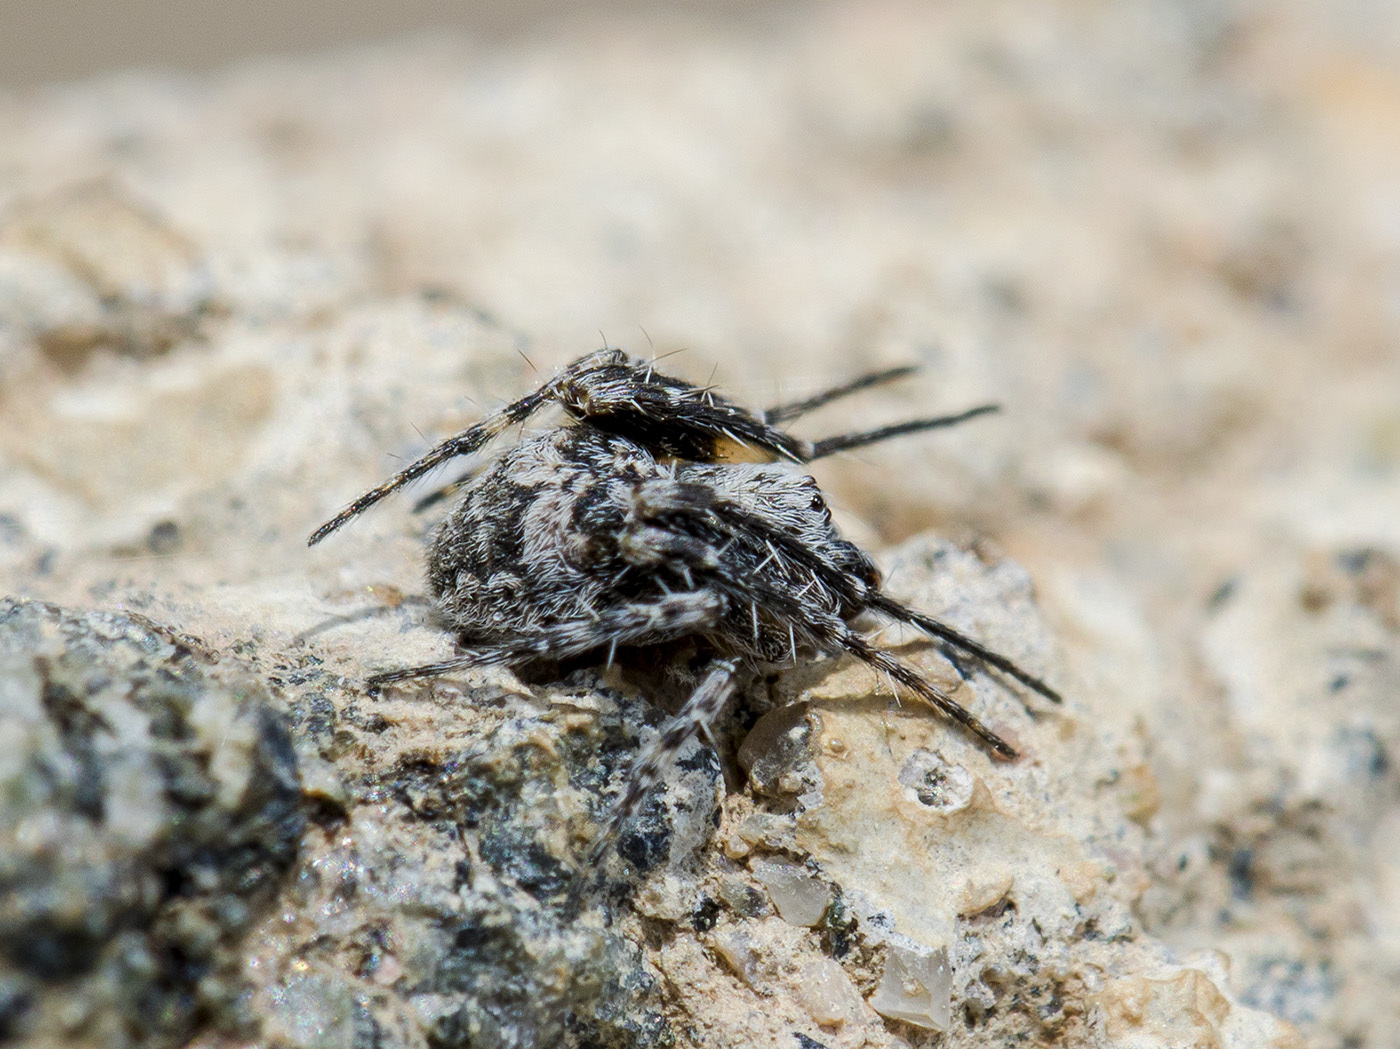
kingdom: Animalia
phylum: Arthropoda
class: Arachnida
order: Araneae
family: Araneidae
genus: Araneus
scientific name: Araneus strandiellus
